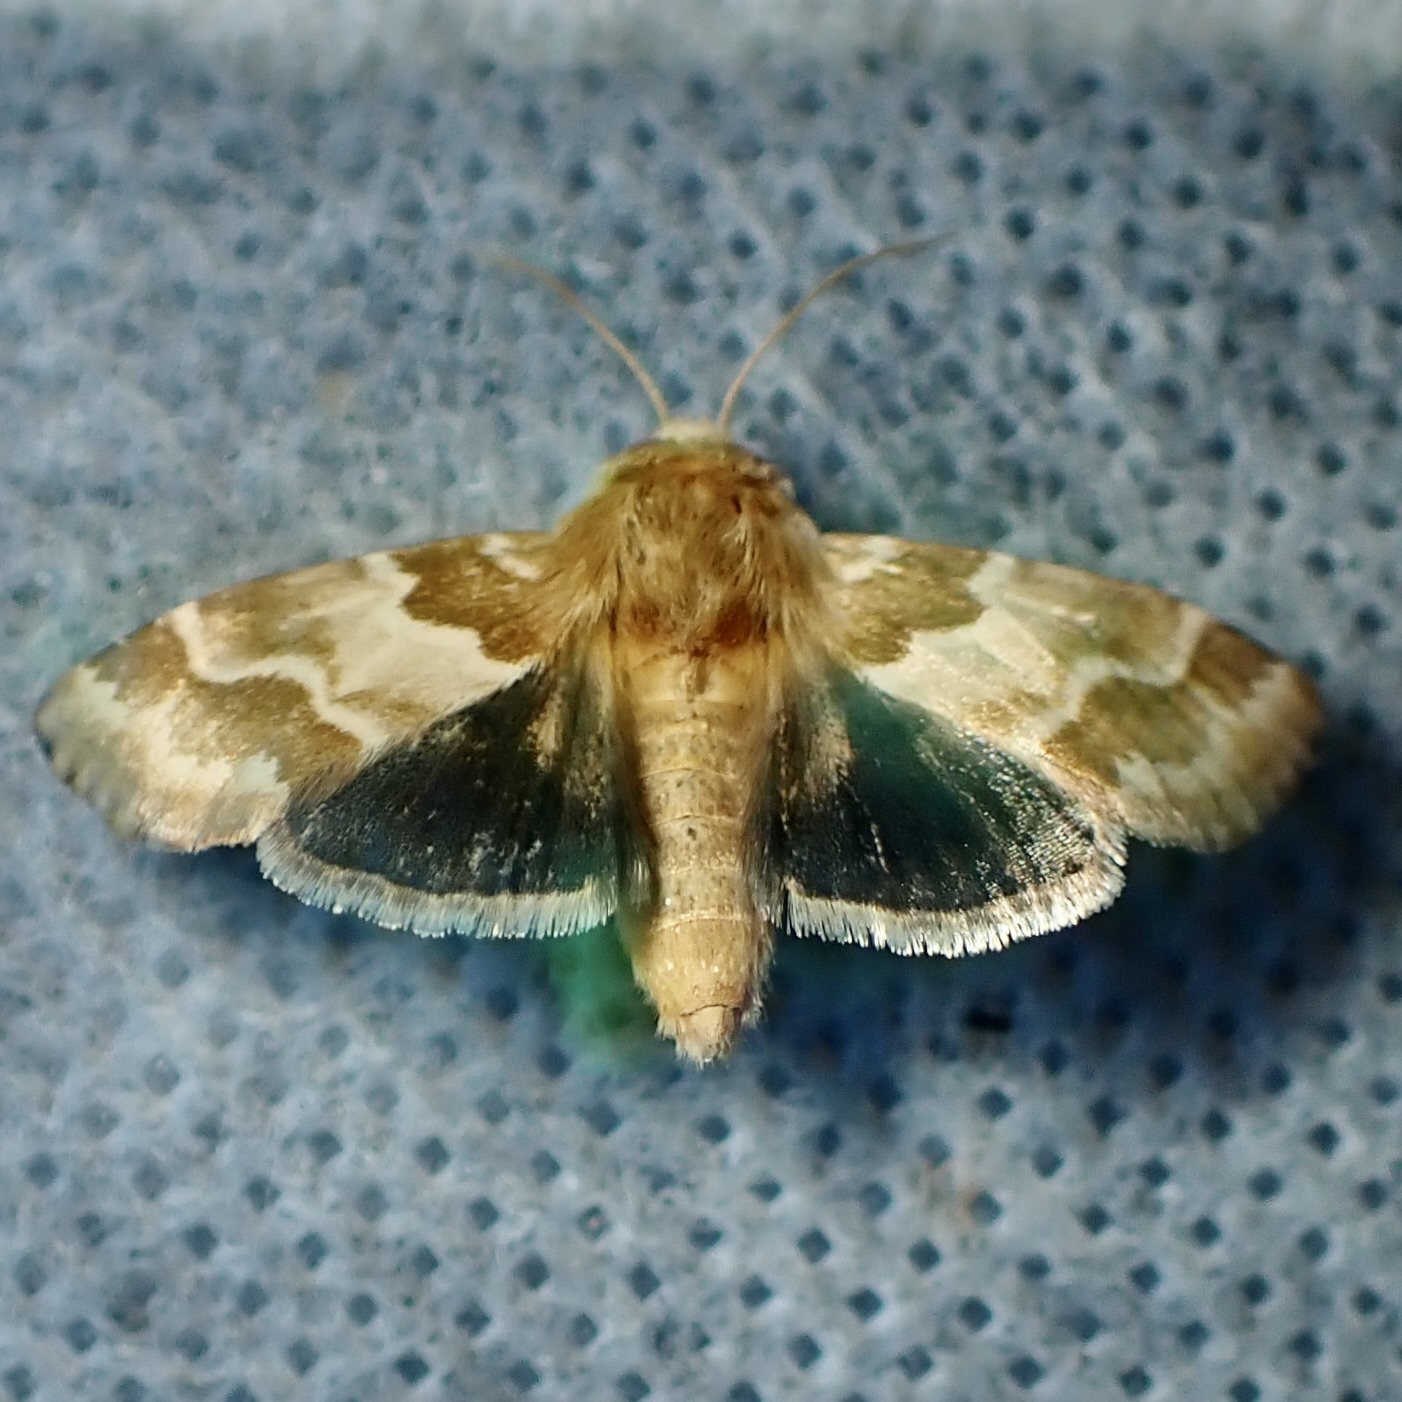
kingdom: Animalia
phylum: Arthropoda
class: Insecta
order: Lepidoptera
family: Noctuidae
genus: Schinia
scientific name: Schinia errans
